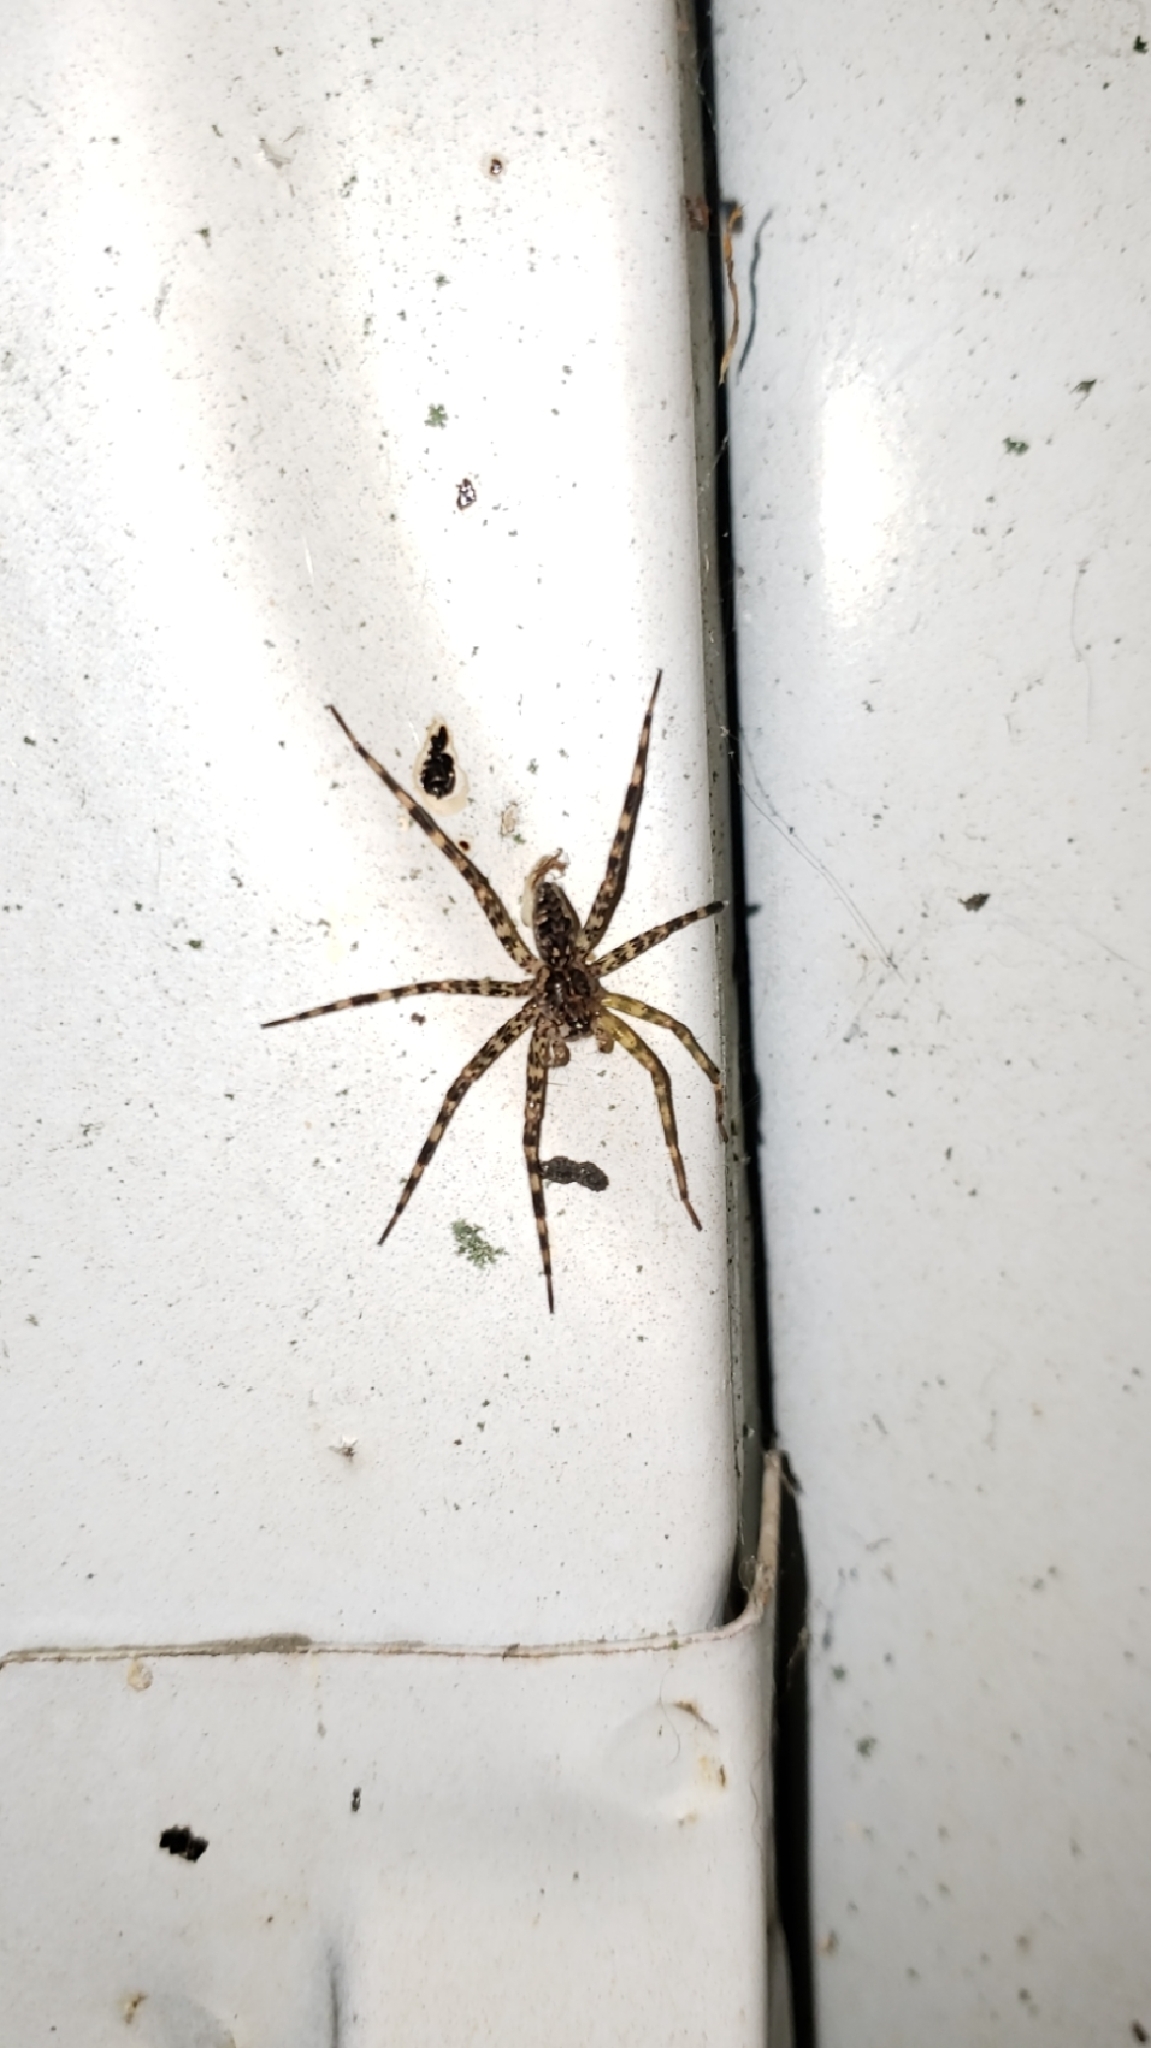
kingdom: Animalia
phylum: Arthropoda
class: Arachnida
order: Araneae
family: Pisauridae
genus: Dolomedes
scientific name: Dolomedes tenebrosus
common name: Dark fishing spider
